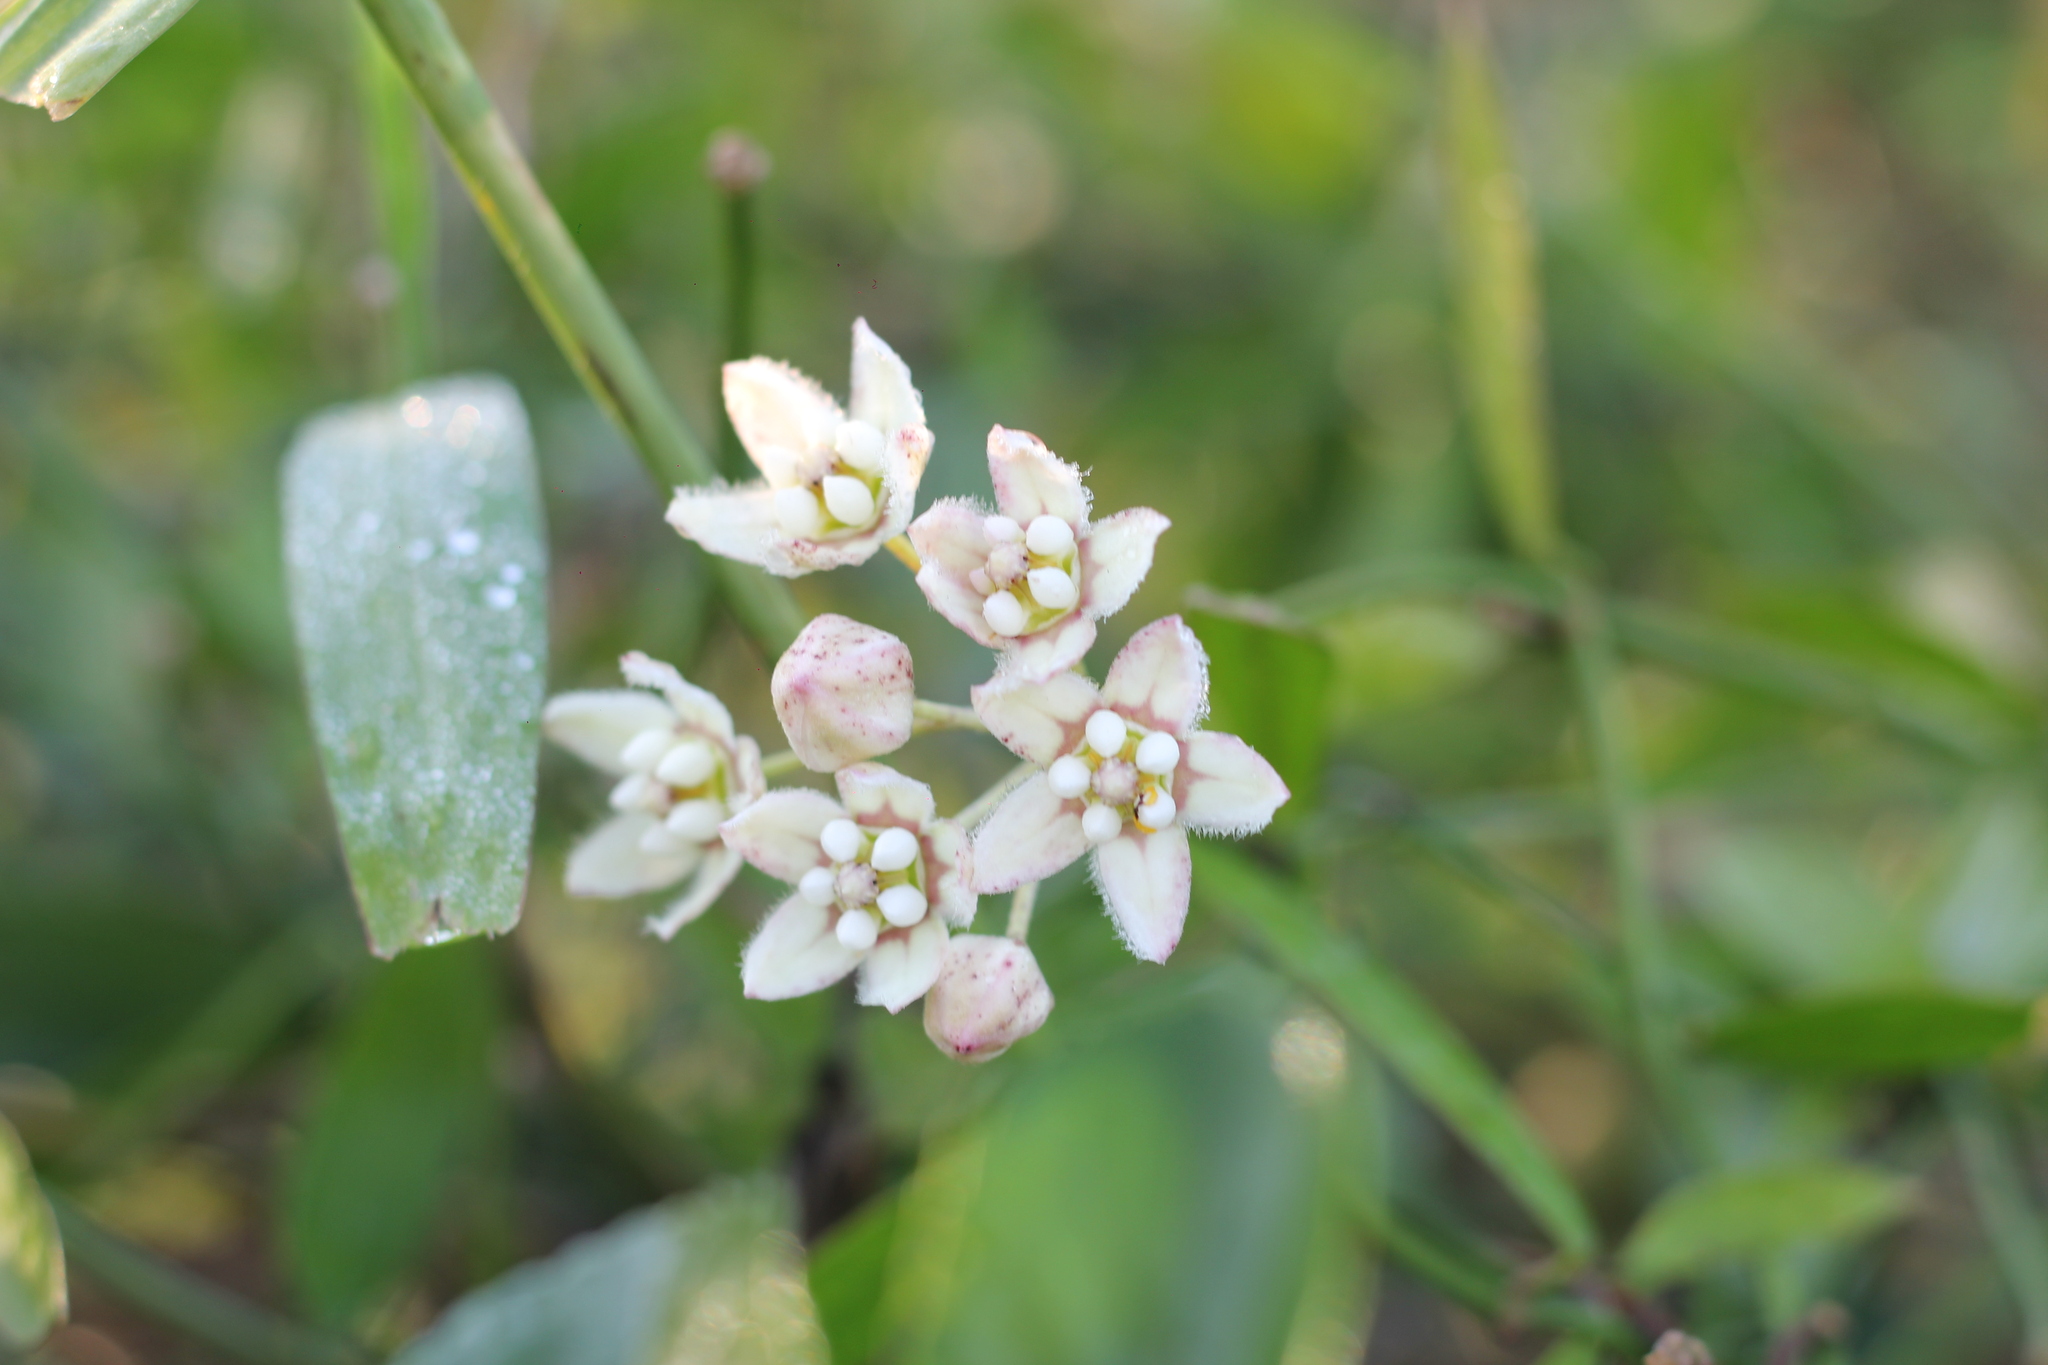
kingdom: Plantae
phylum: Tracheophyta
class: Magnoliopsida
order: Gentianales
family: Apocynaceae
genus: Funastrum
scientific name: Funastrum clausum
